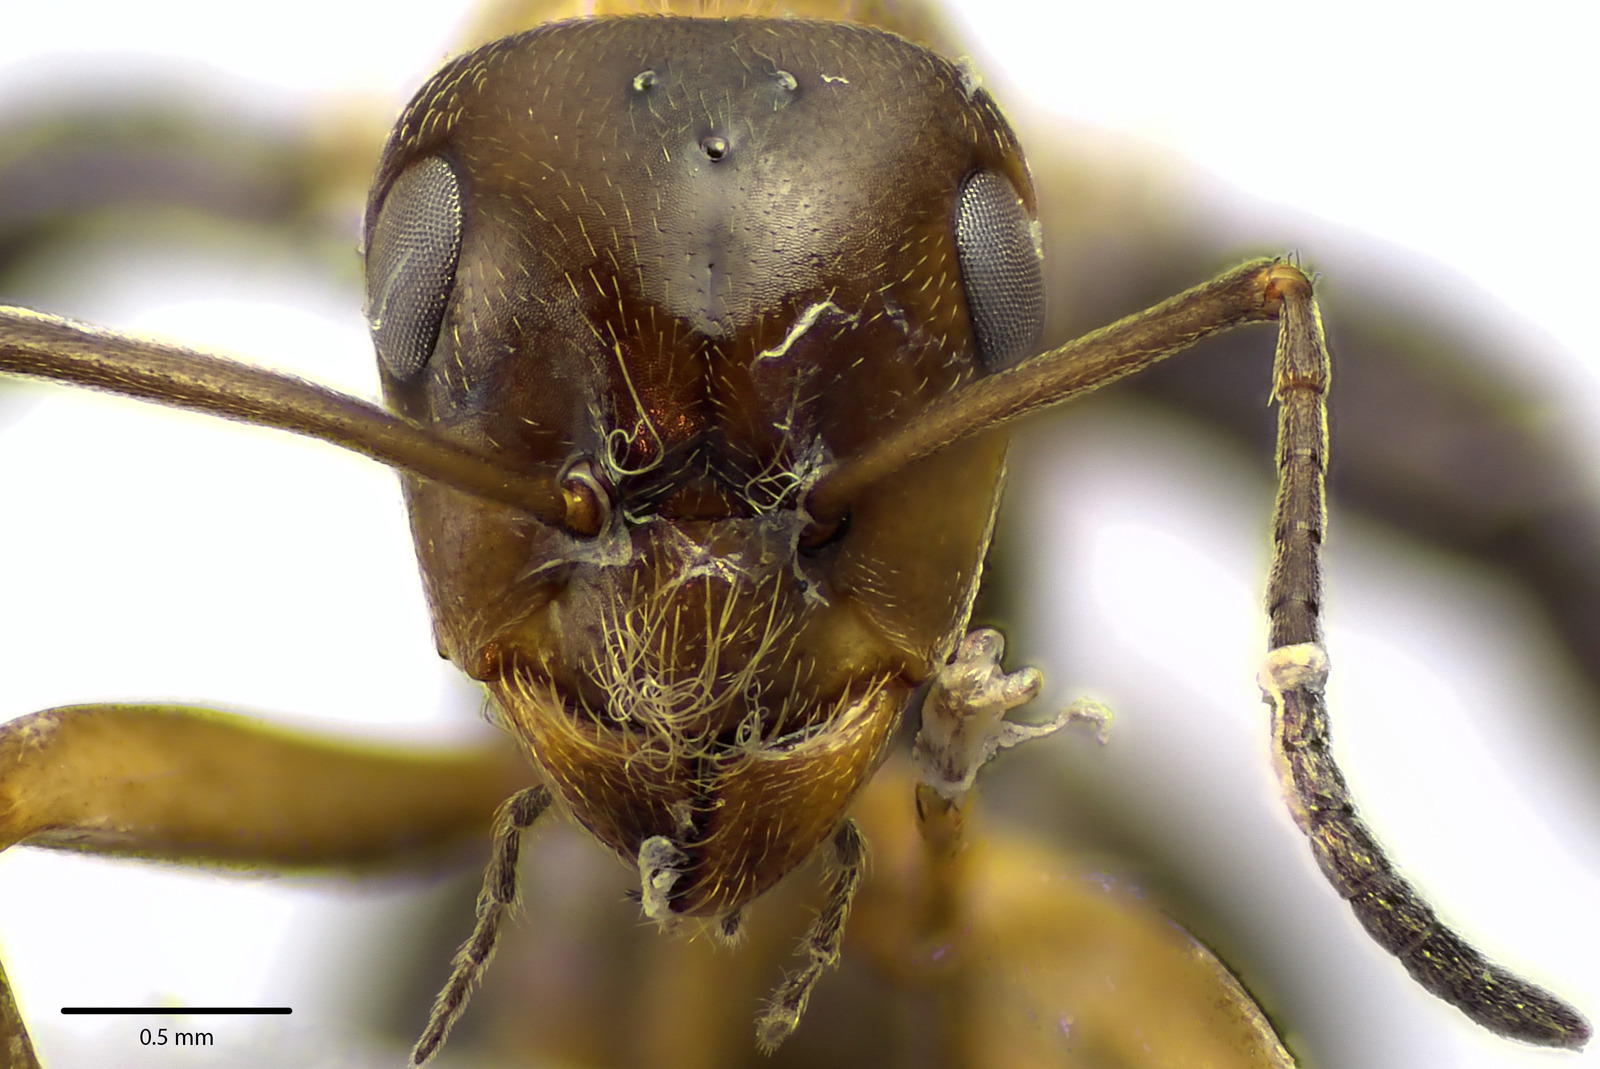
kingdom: Animalia
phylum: Arthropoda
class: Insecta
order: Hymenoptera
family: Formicidae
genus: Formica
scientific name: Formica prociliata
